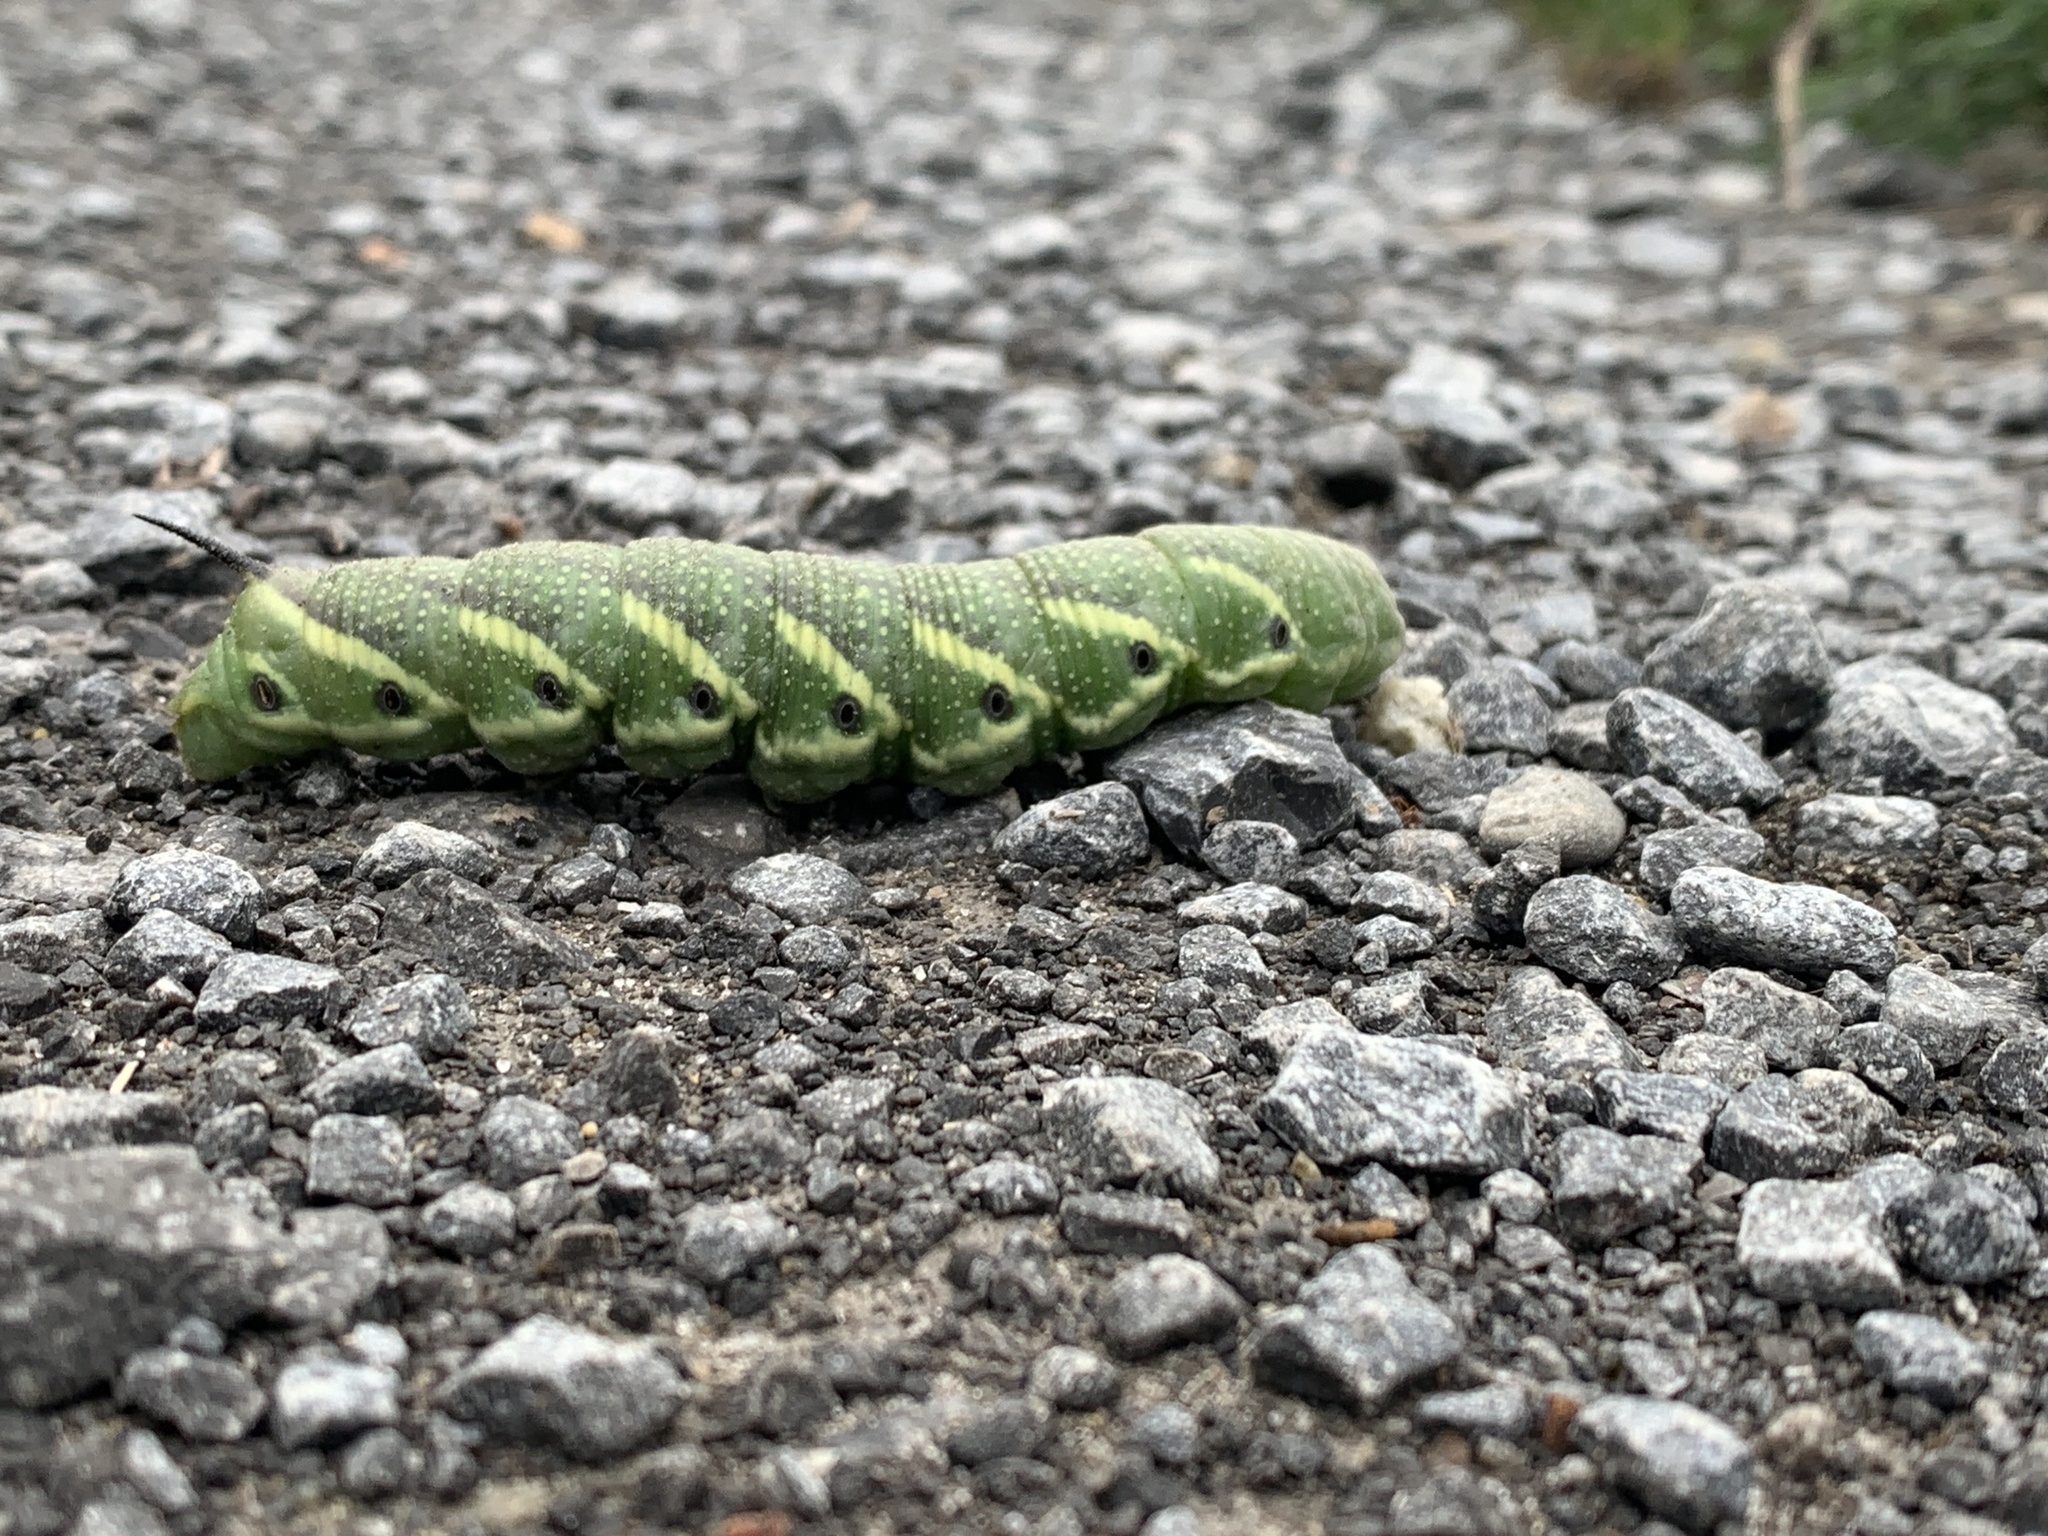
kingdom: Animalia
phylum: Arthropoda
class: Insecta
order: Lepidoptera
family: Sphingidae
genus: Manduca
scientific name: Manduca quinquemaculatus
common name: Five-spotted hawk-moth
